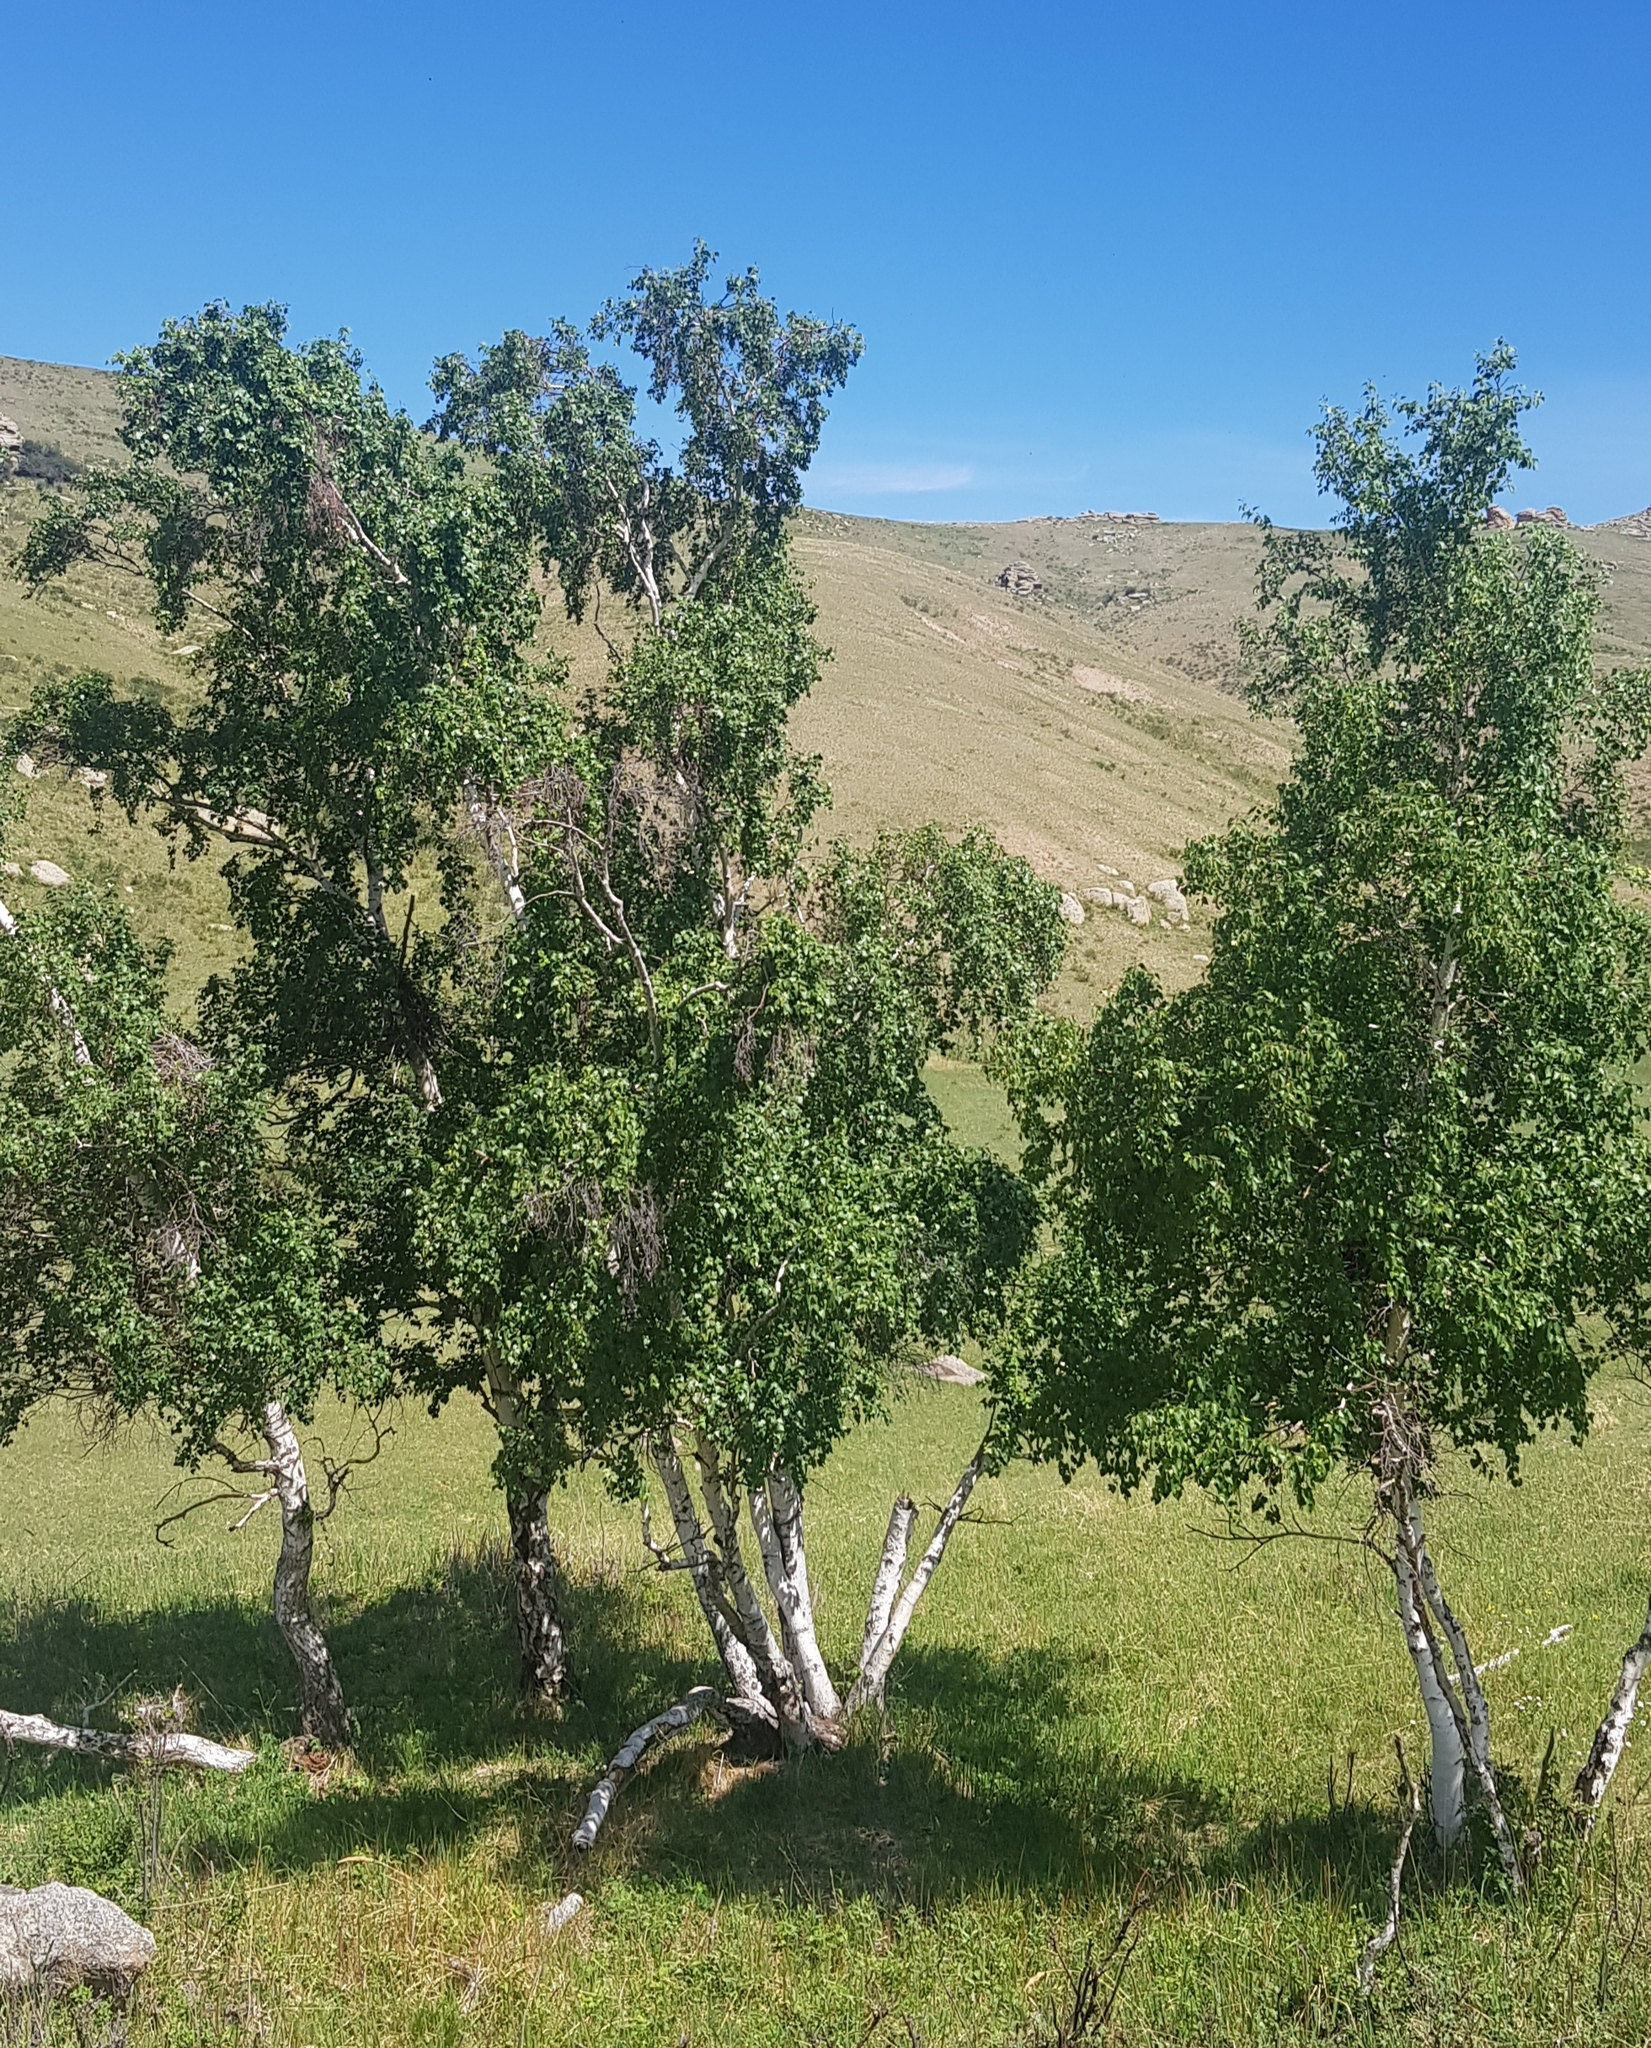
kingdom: Plantae
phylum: Tracheophyta
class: Magnoliopsida
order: Fagales
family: Betulaceae
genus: Betula
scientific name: Betula pendula
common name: Silver birch
